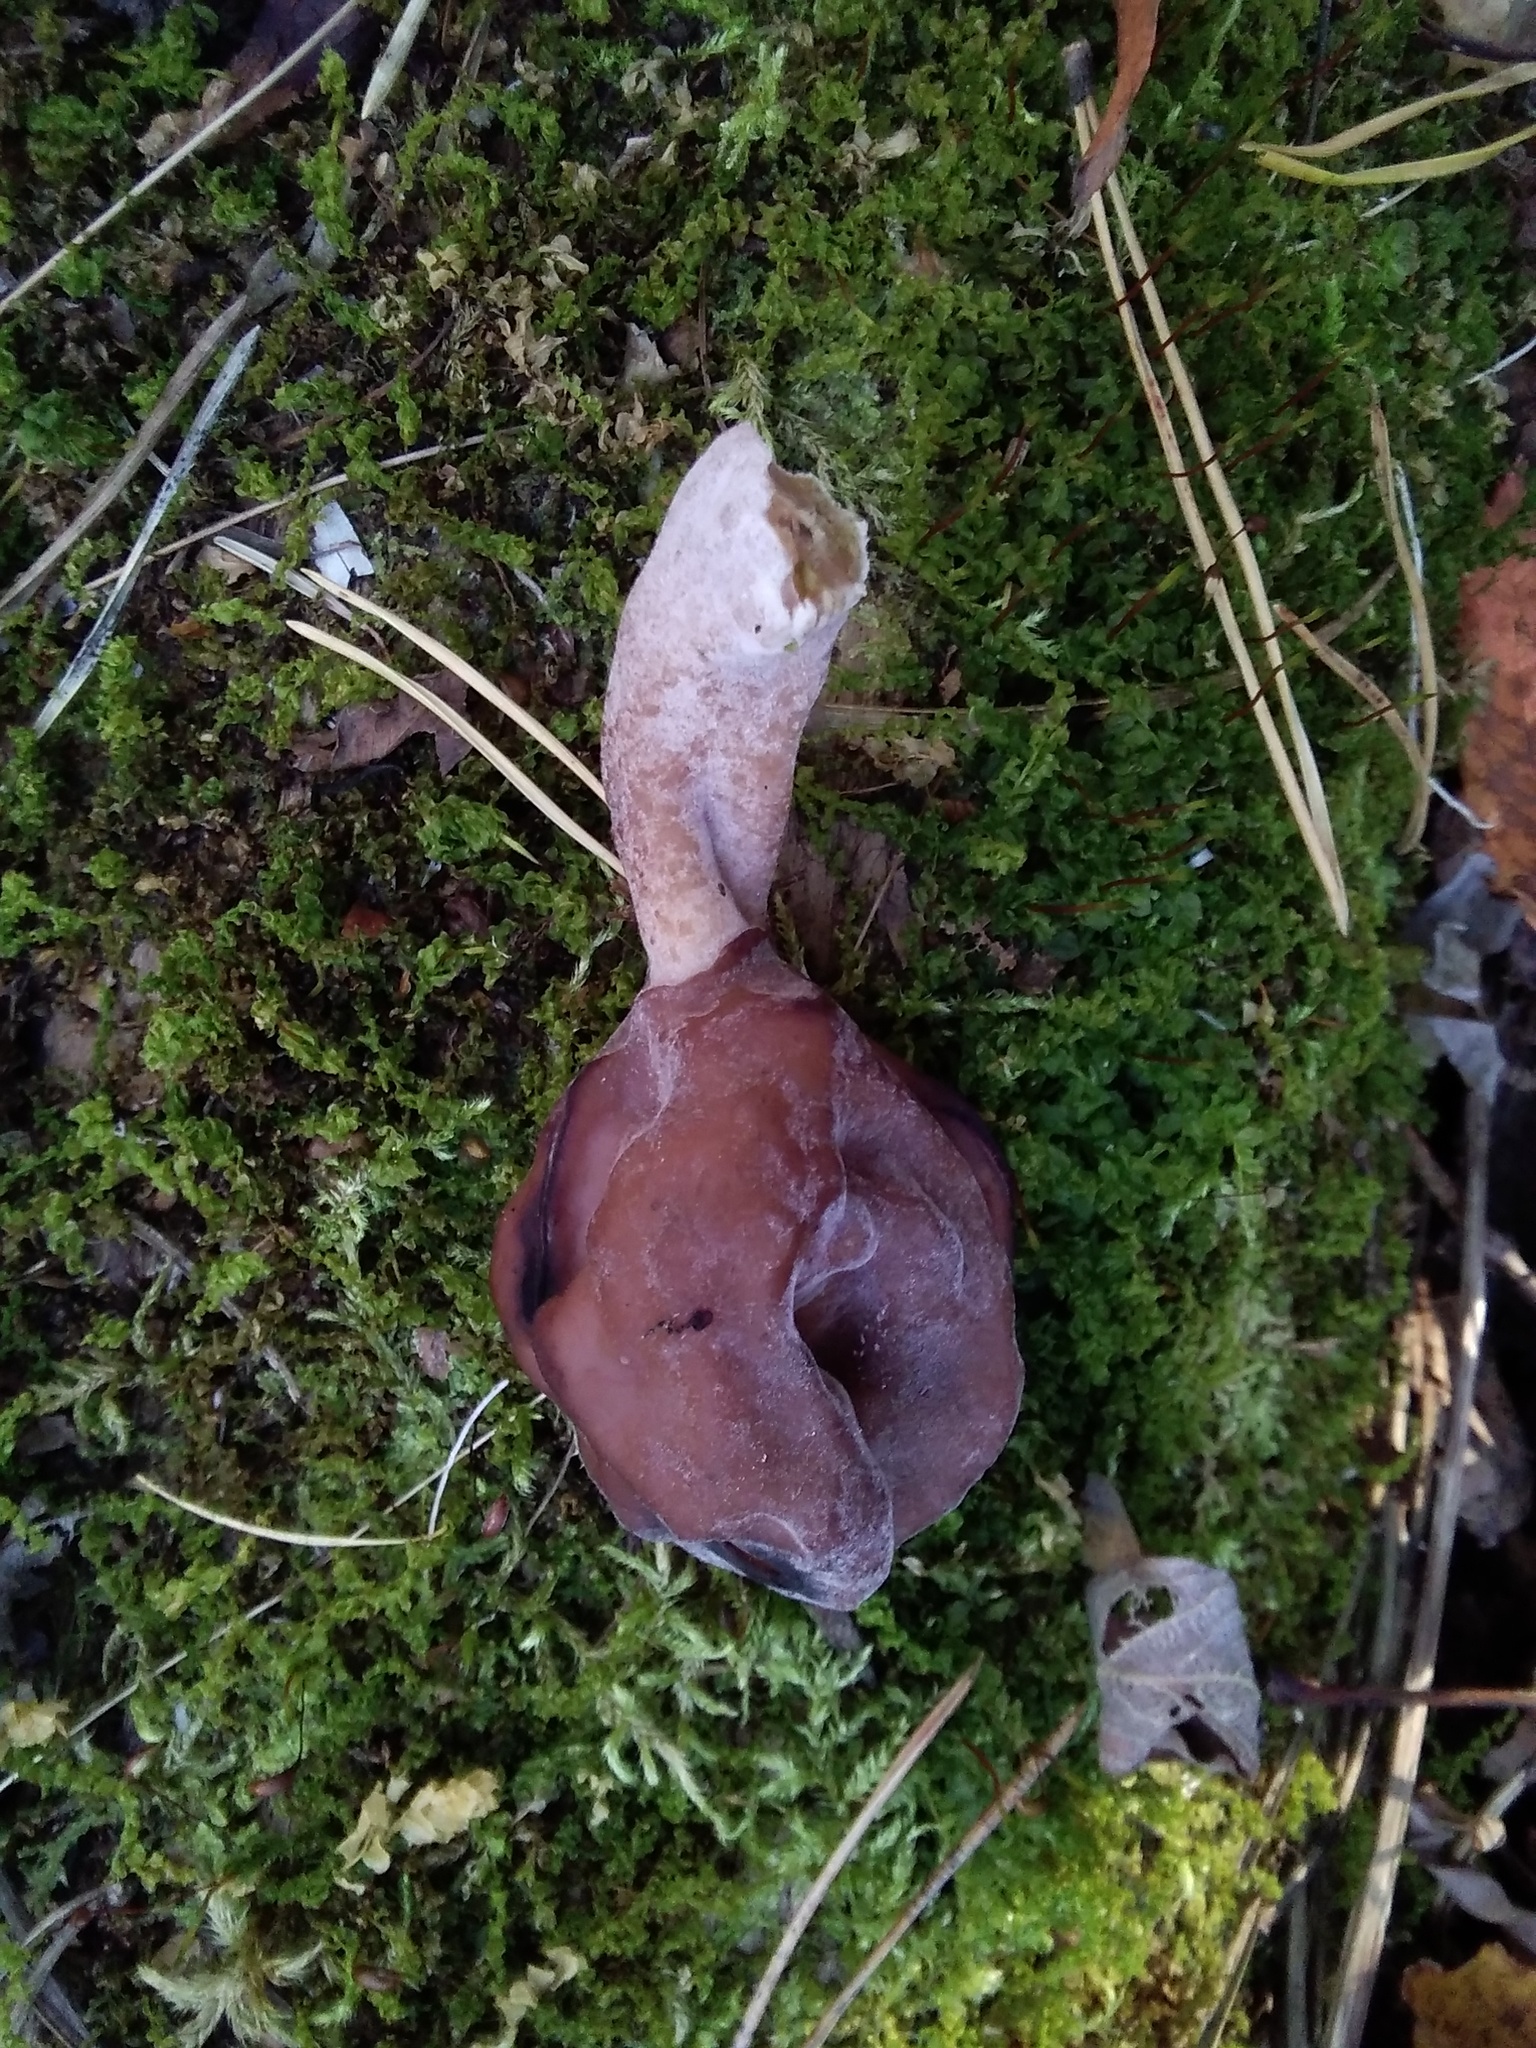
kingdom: Fungi
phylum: Ascomycota
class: Pezizomycetes
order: Pezizales
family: Discinaceae
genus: Gyromitra
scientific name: Gyromitra infula
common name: Pouched false morel
